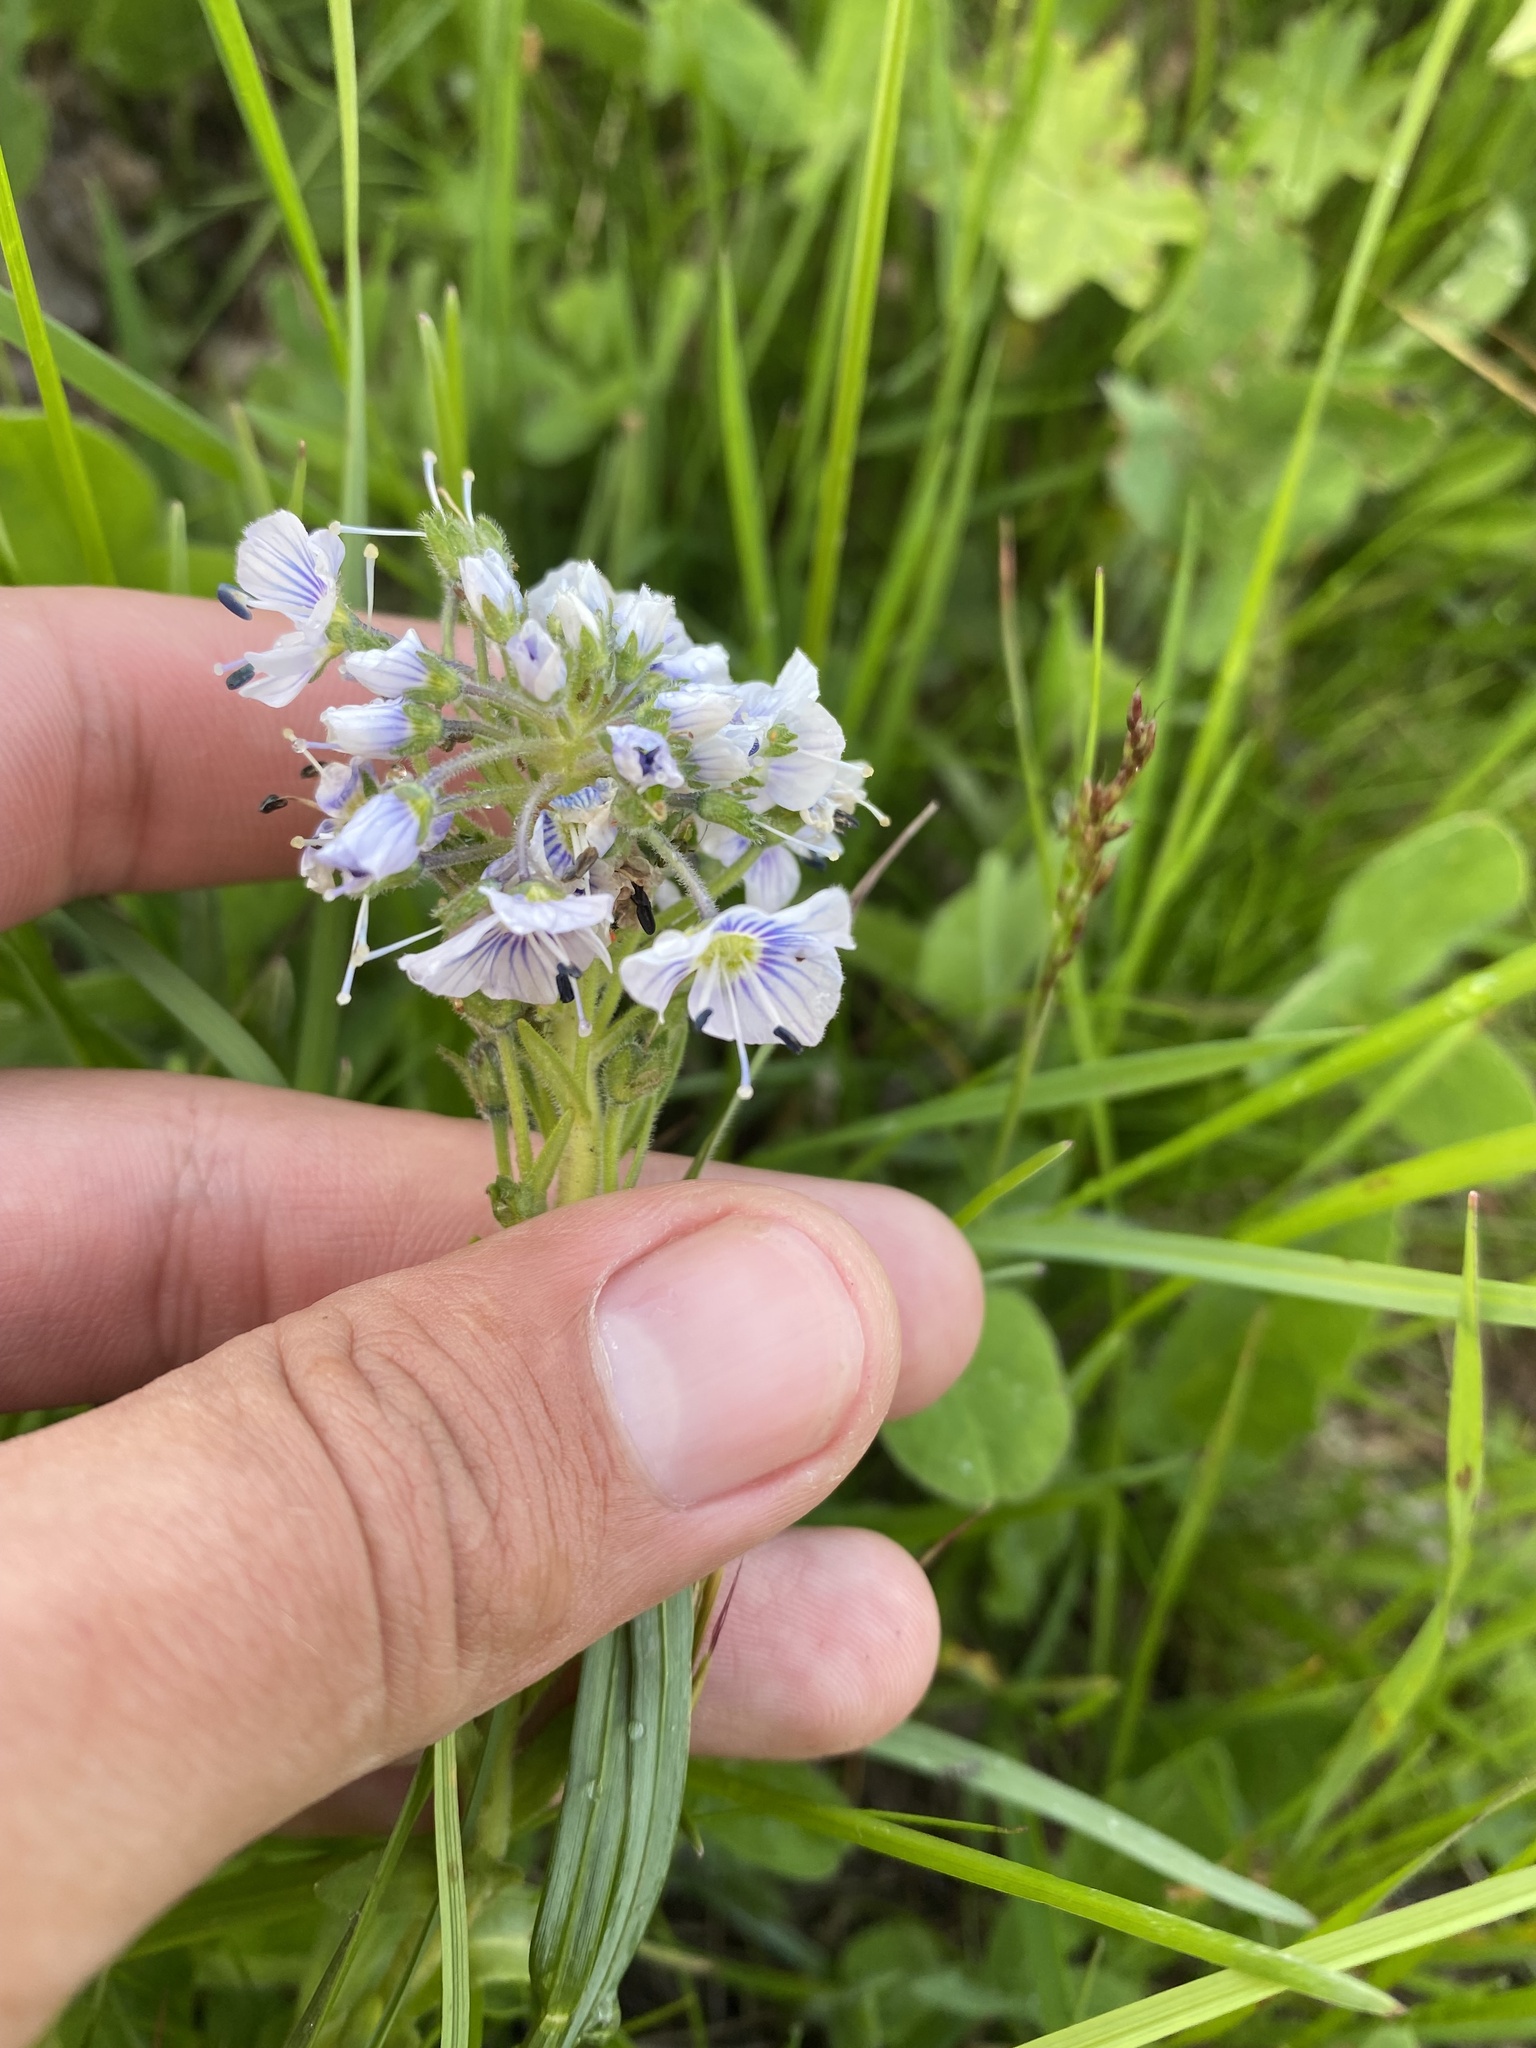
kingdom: Plantae
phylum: Tracheophyta
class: Magnoliopsida
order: Lamiales
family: Plantaginaceae
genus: Veronica
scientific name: Veronica gentianoides
